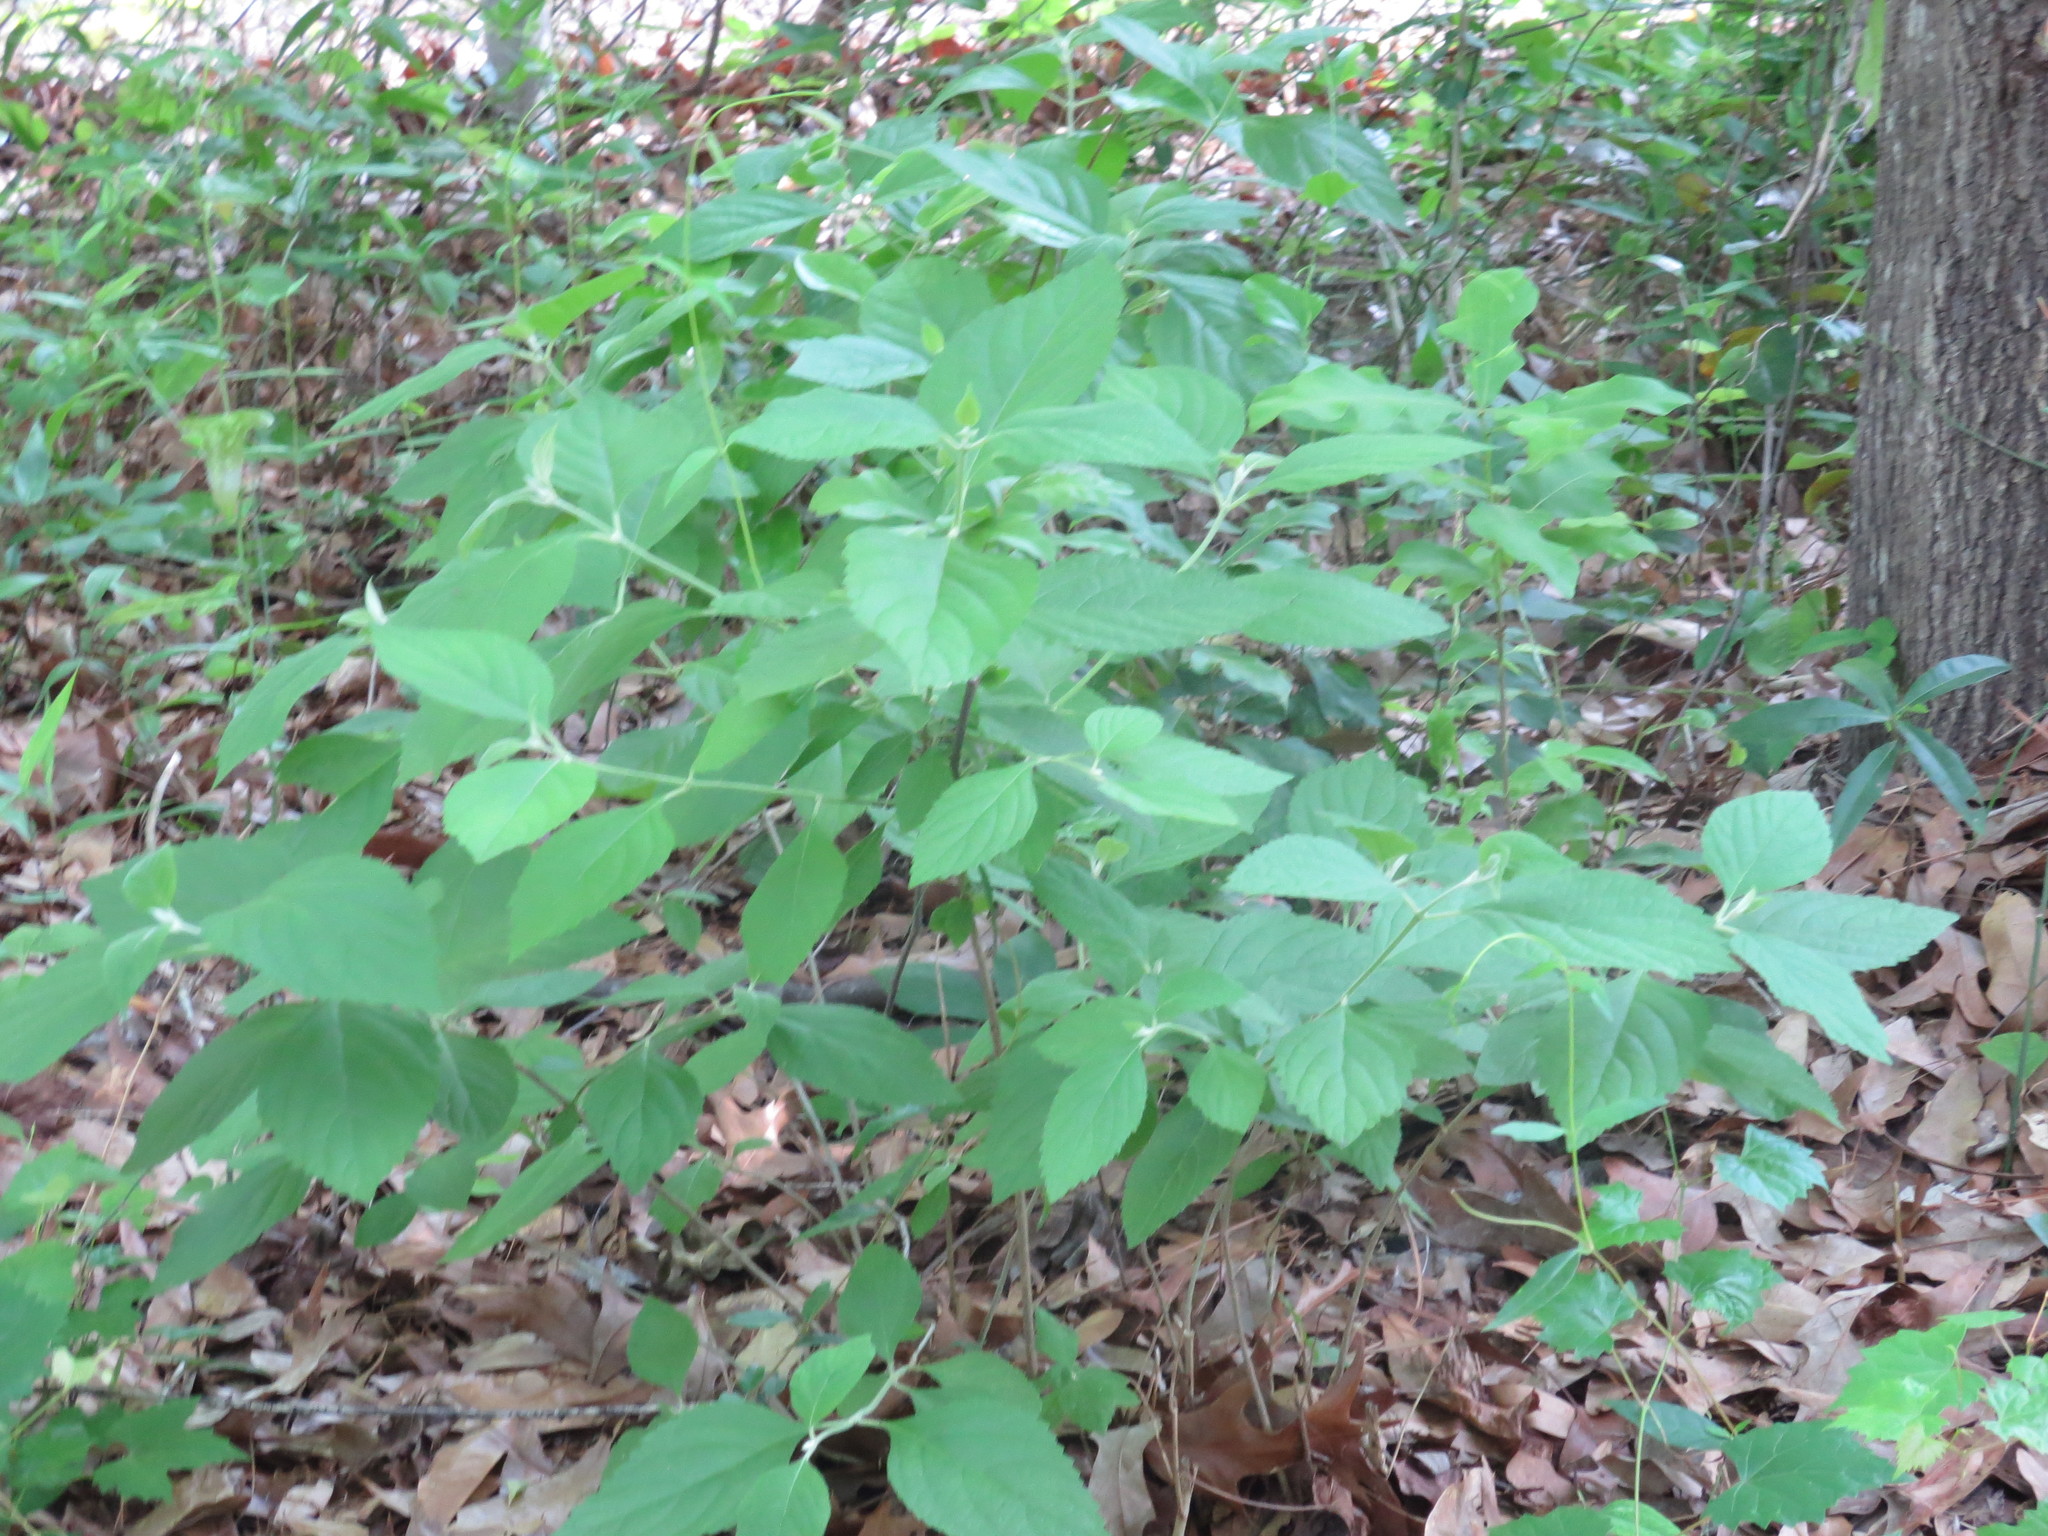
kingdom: Plantae
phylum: Tracheophyta
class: Magnoliopsida
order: Lamiales
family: Lamiaceae
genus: Callicarpa
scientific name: Callicarpa americana
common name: American beautyberry
